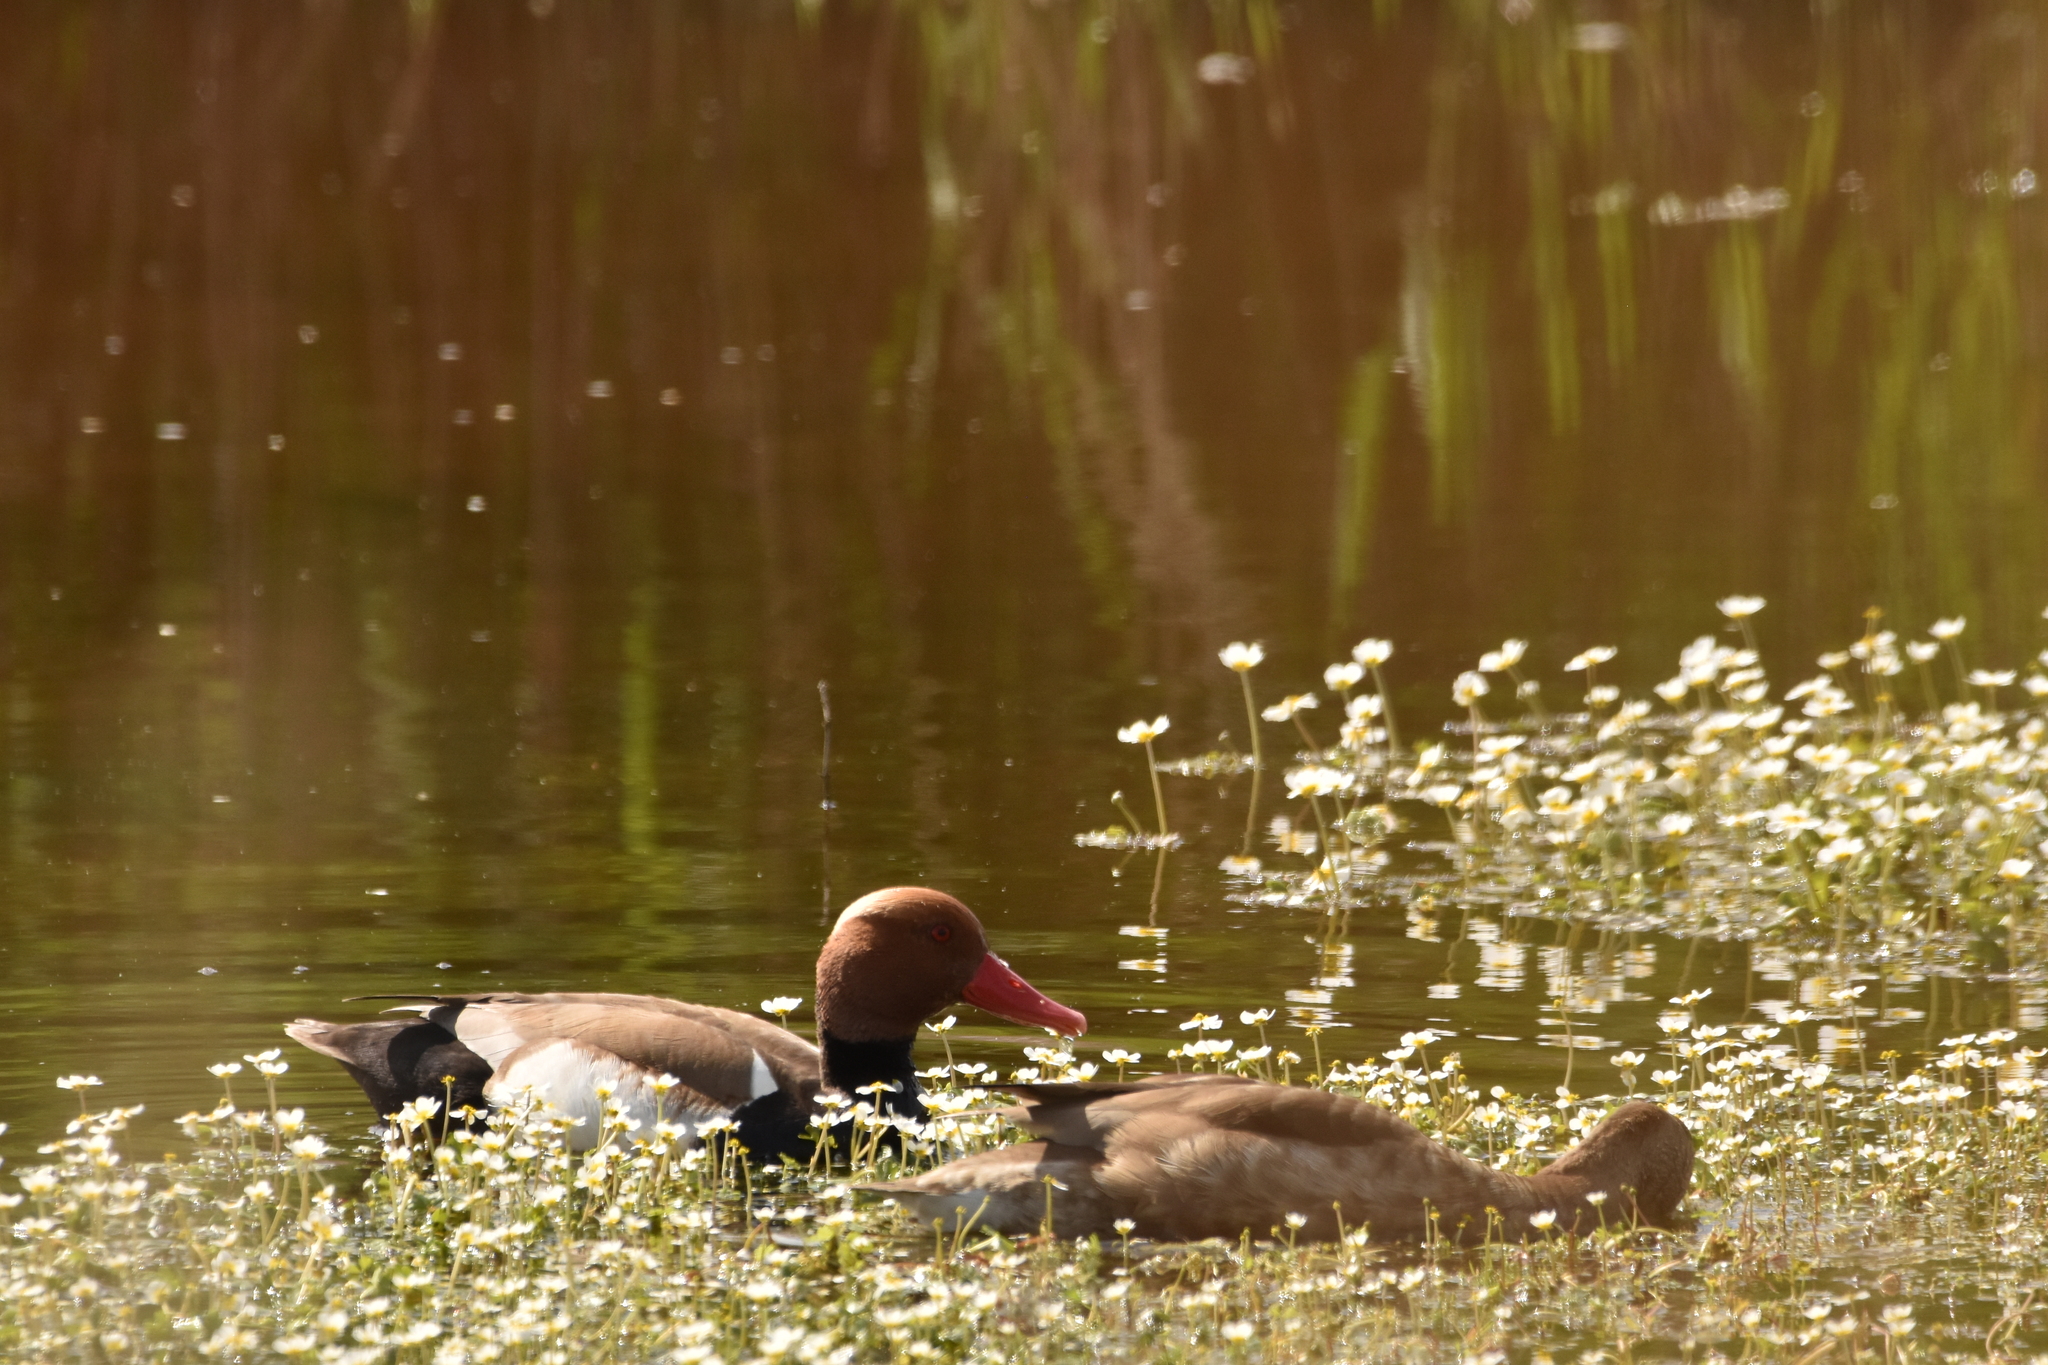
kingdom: Animalia
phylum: Chordata
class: Aves
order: Anseriformes
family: Anatidae
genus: Netta
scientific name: Netta rufina
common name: Red-crested pochard
